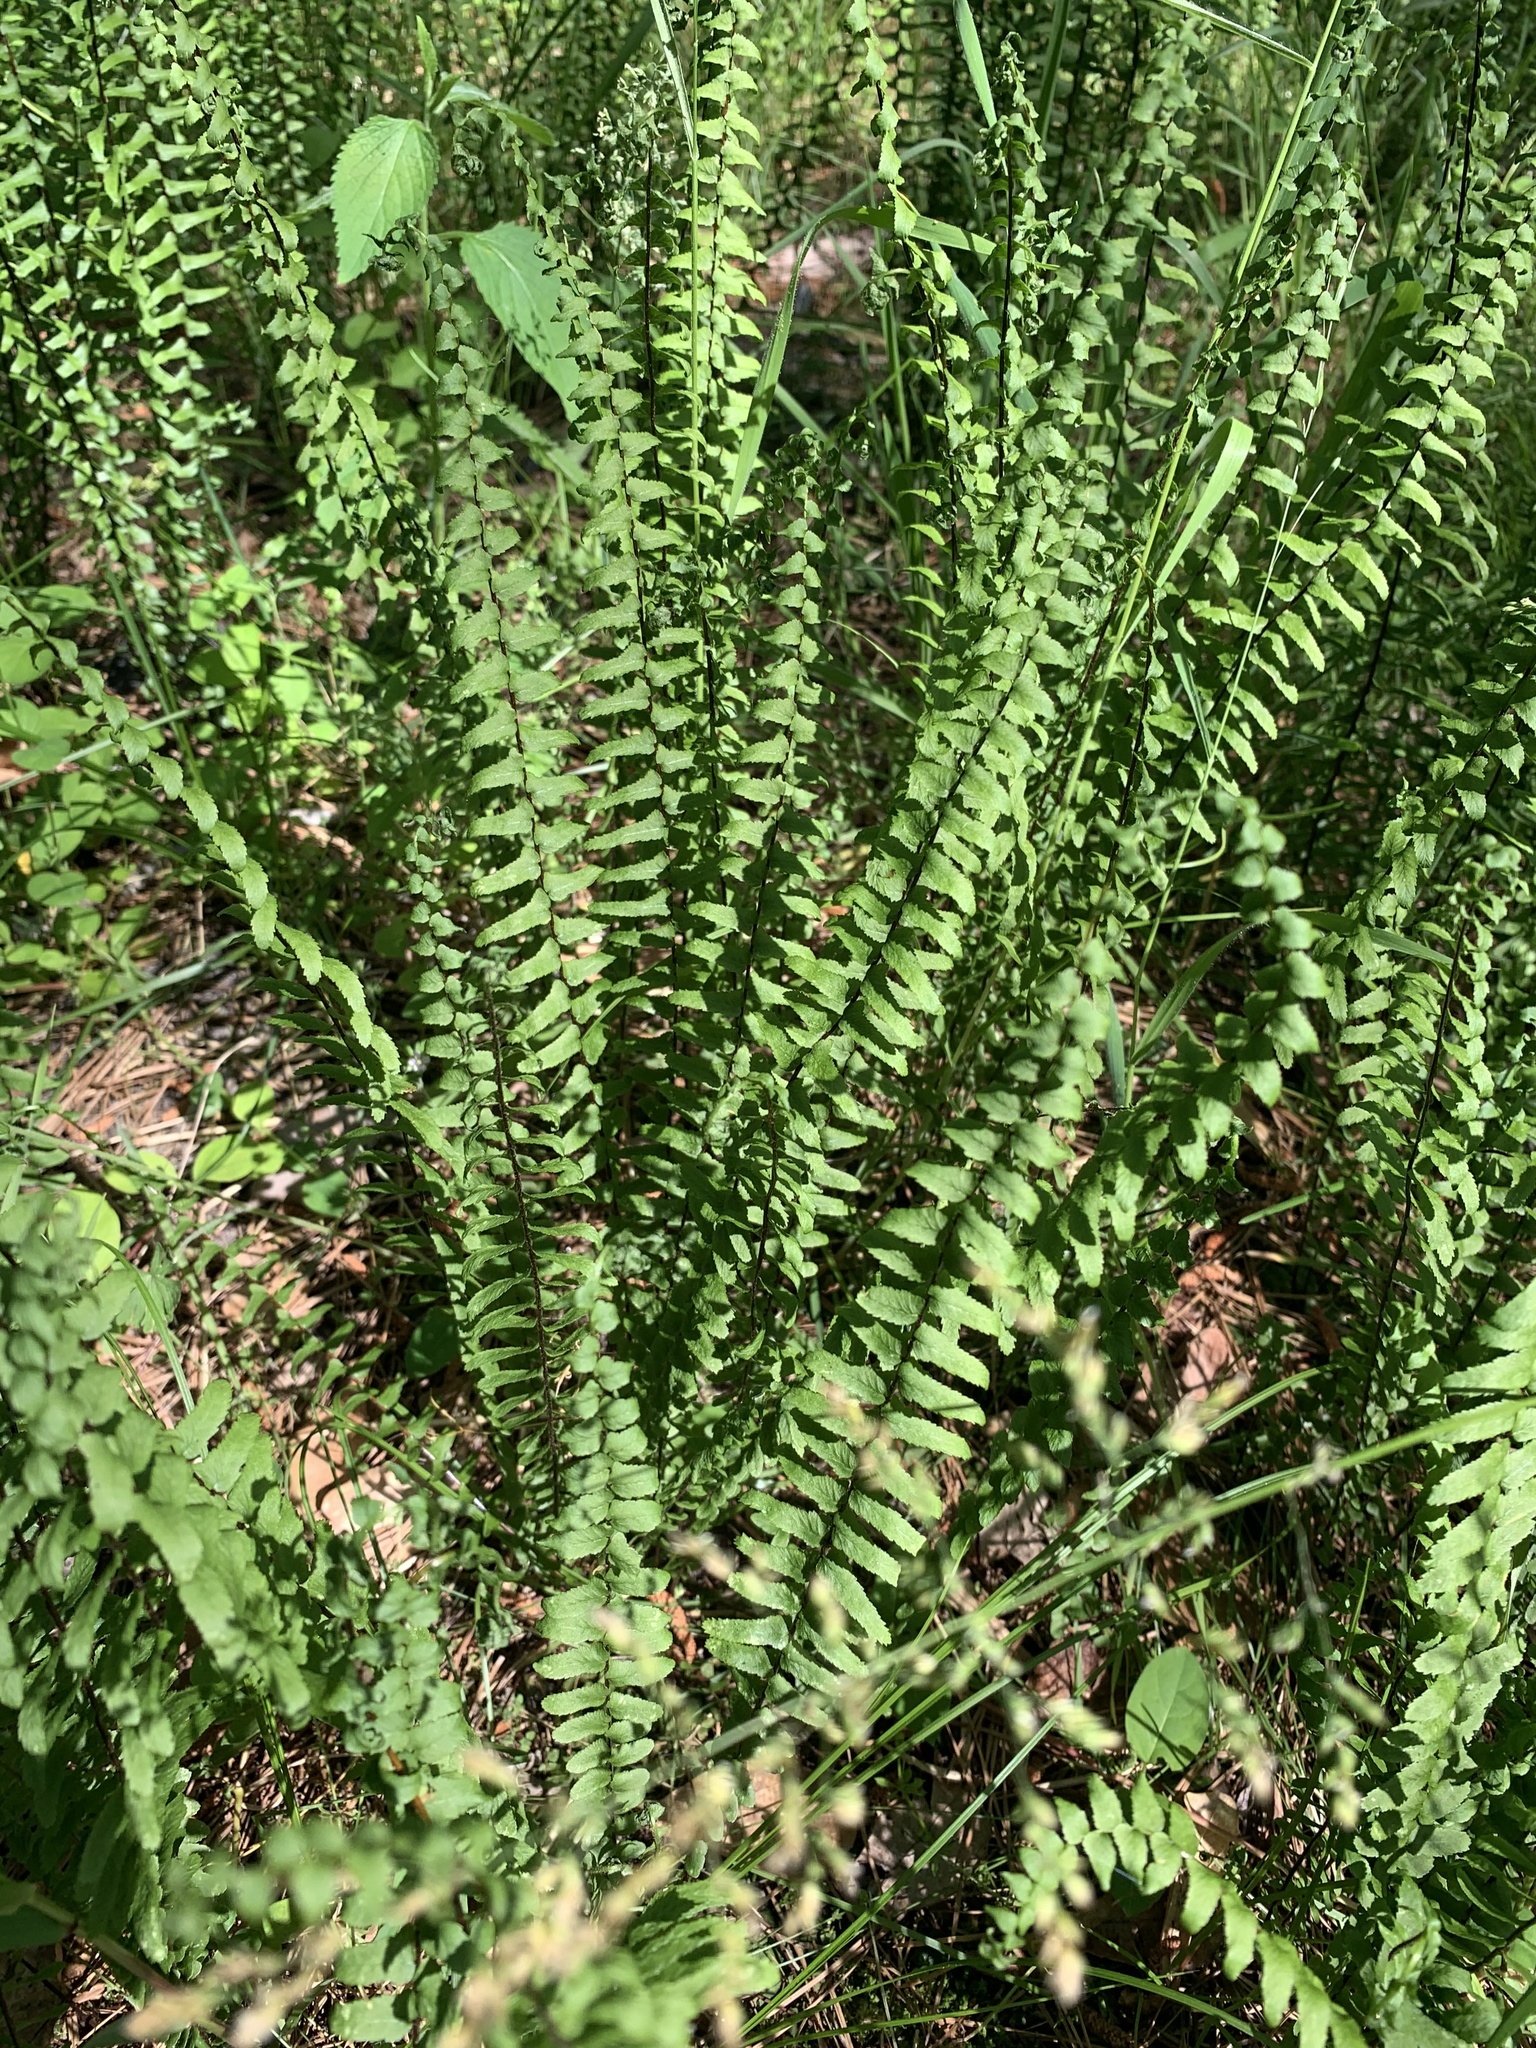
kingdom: Plantae
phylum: Tracheophyta
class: Polypodiopsida
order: Polypodiales
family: Aspleniaceae
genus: Asplenium
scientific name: Asplenium platyneuron
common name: Ebony spleenwort
